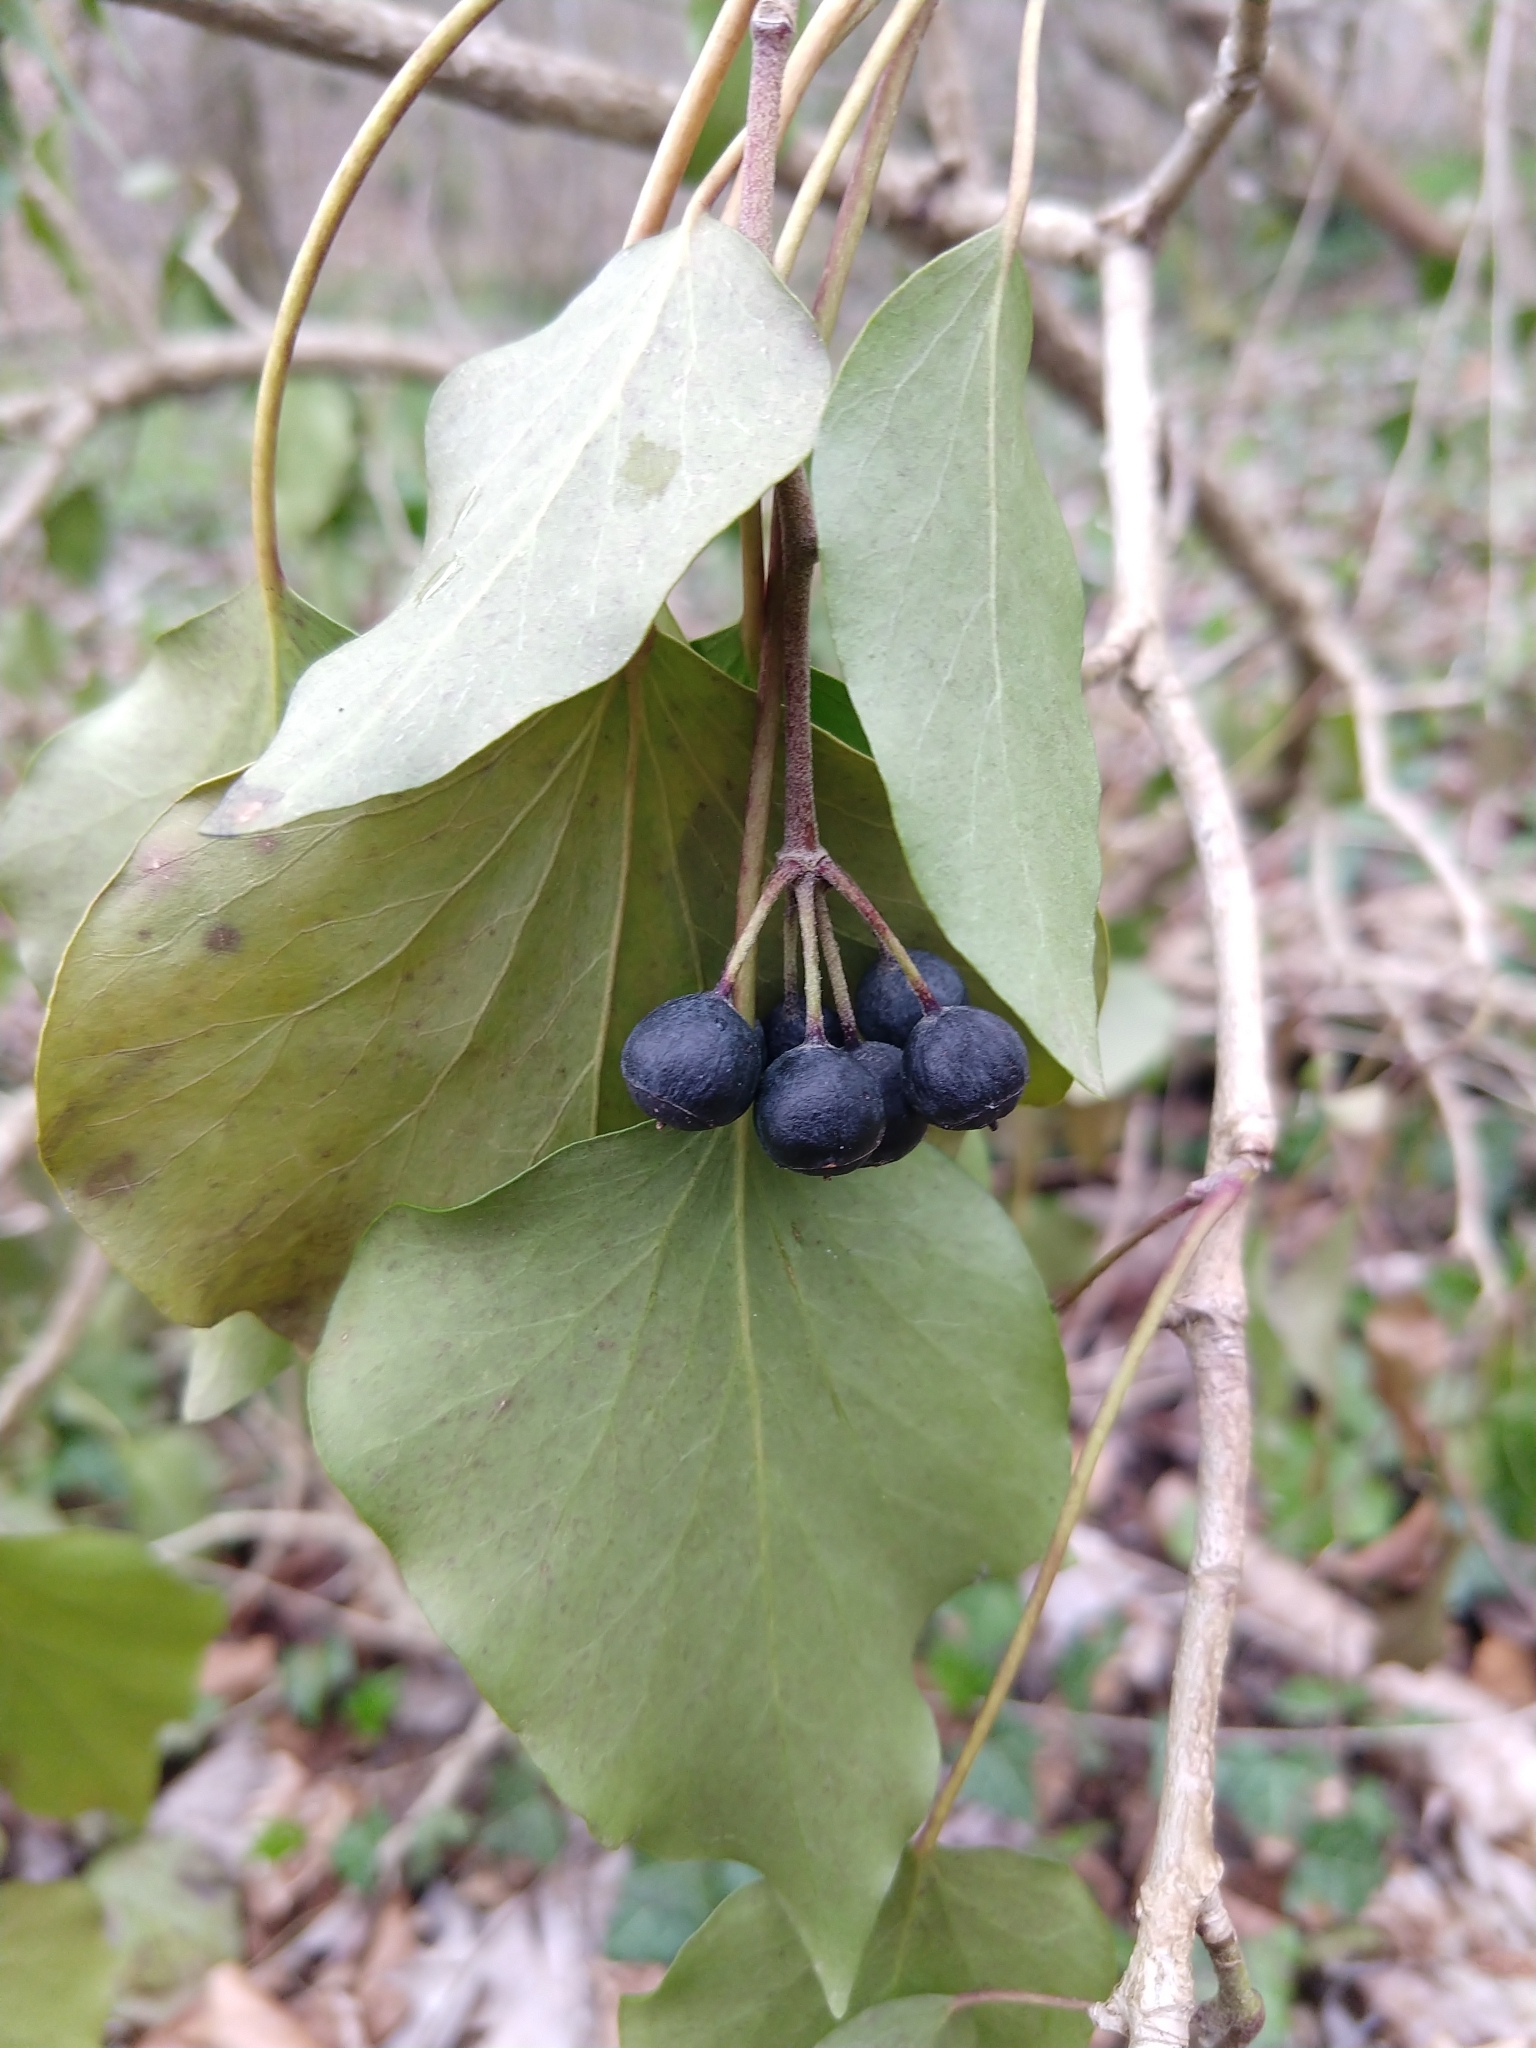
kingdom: Plantae
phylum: Tracheophyta
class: Magnoliopsida
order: Apiales
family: Araliaceae
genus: Hedera
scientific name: Hedera helix
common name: Ivy
